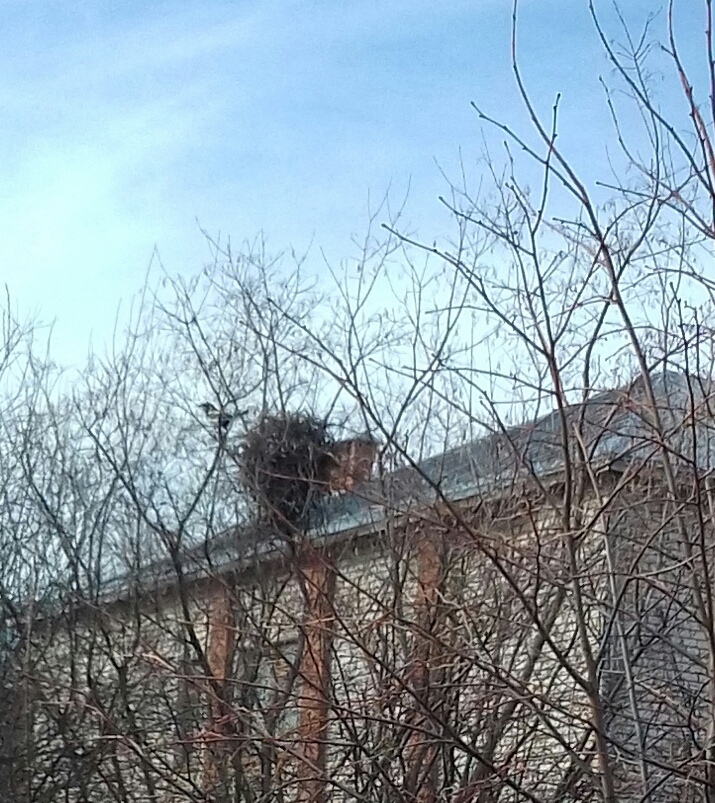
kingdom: Animalia
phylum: Chordata
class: Aves
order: Passeriformes
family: Corvidae
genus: Pica
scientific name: Pica pica
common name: Eurasian magpie
